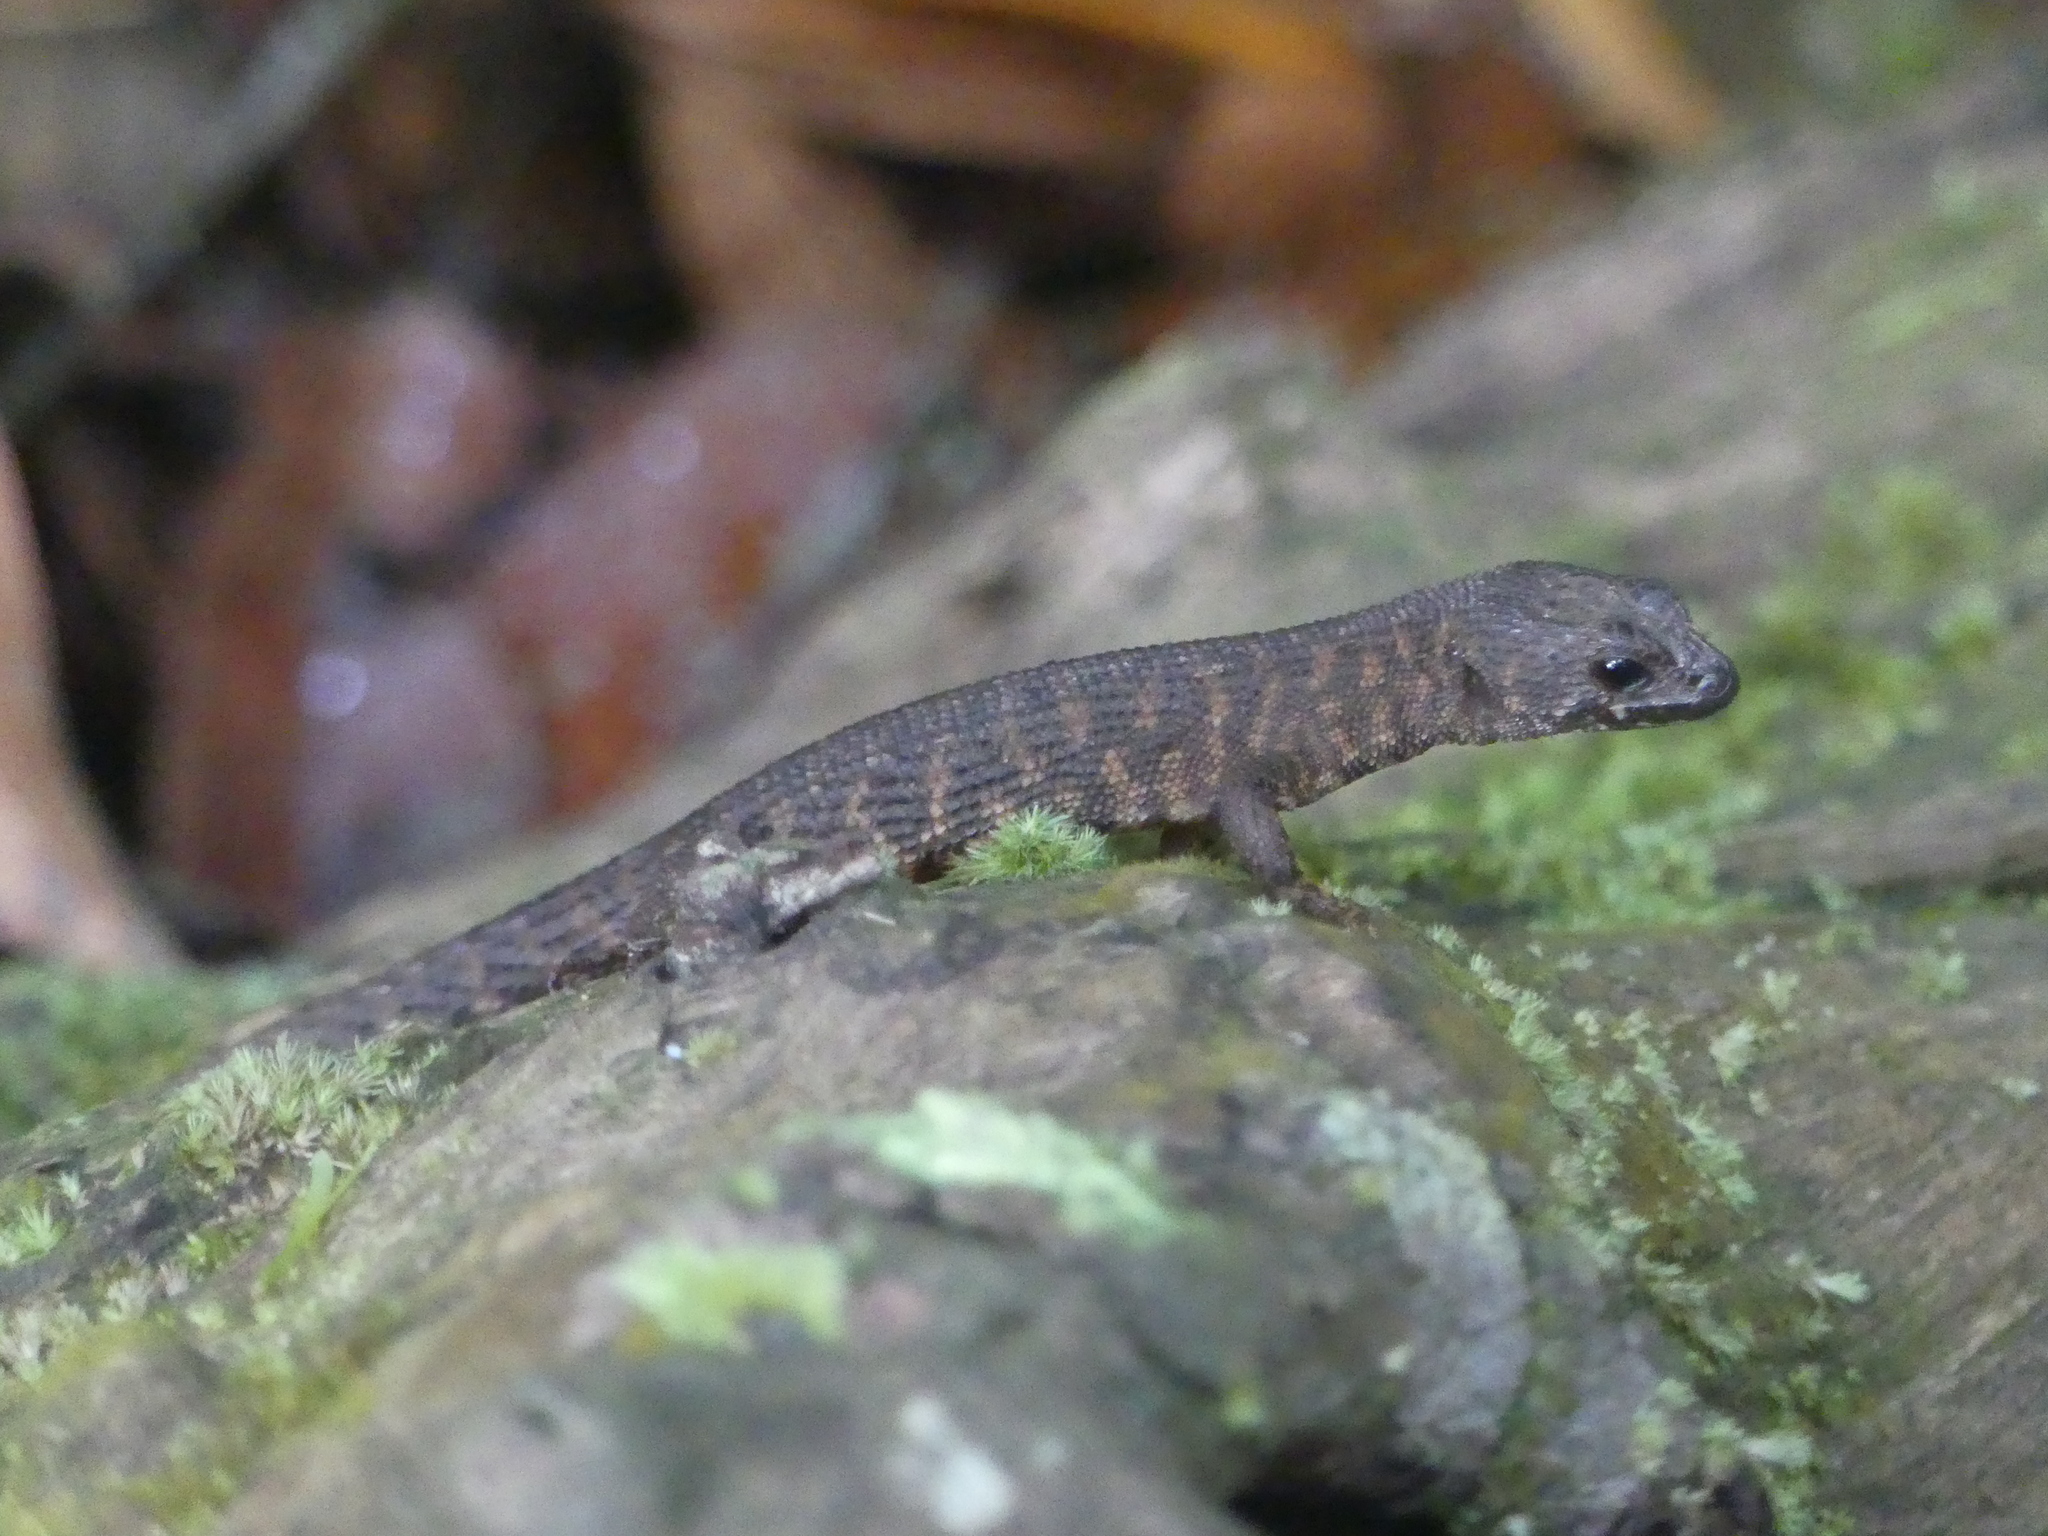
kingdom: Animalia
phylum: Chordata
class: Squamata
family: Scincidae
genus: Gnypetoscincus
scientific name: Gnypetoscincus queenslandiae
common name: Prickly forest skink
